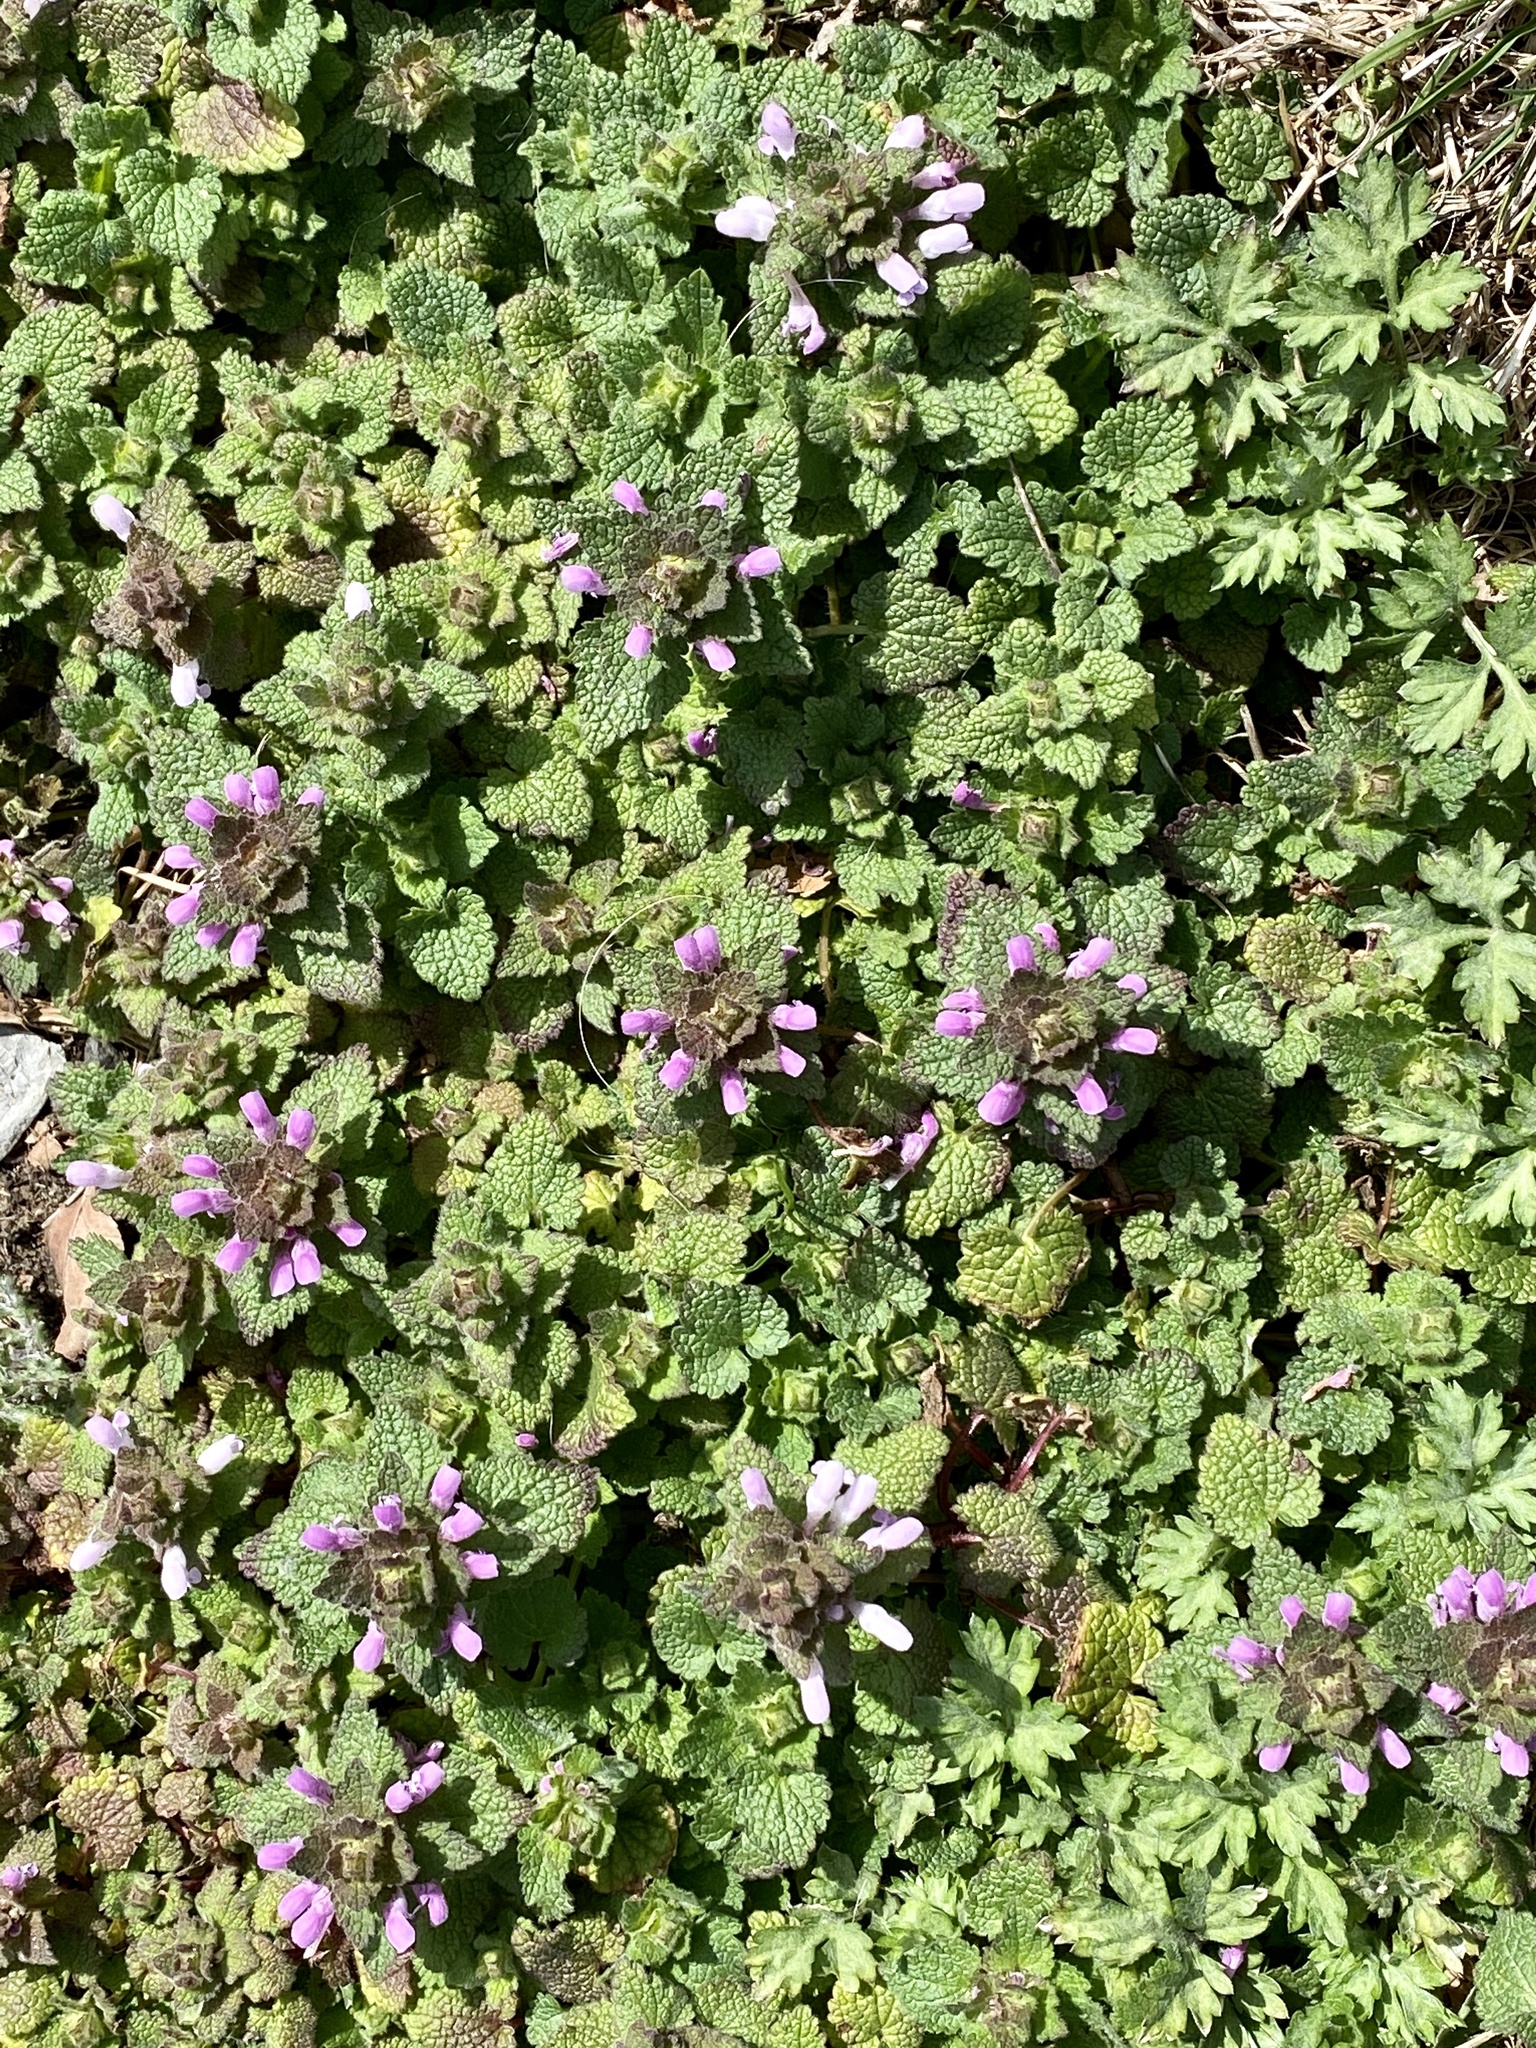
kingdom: Plantae
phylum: Tracheophyta
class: Magnoliopsida
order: Lamiales
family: Lamiaceae
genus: Lamium
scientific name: Lamium purpureum
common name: Red dead-nettle
